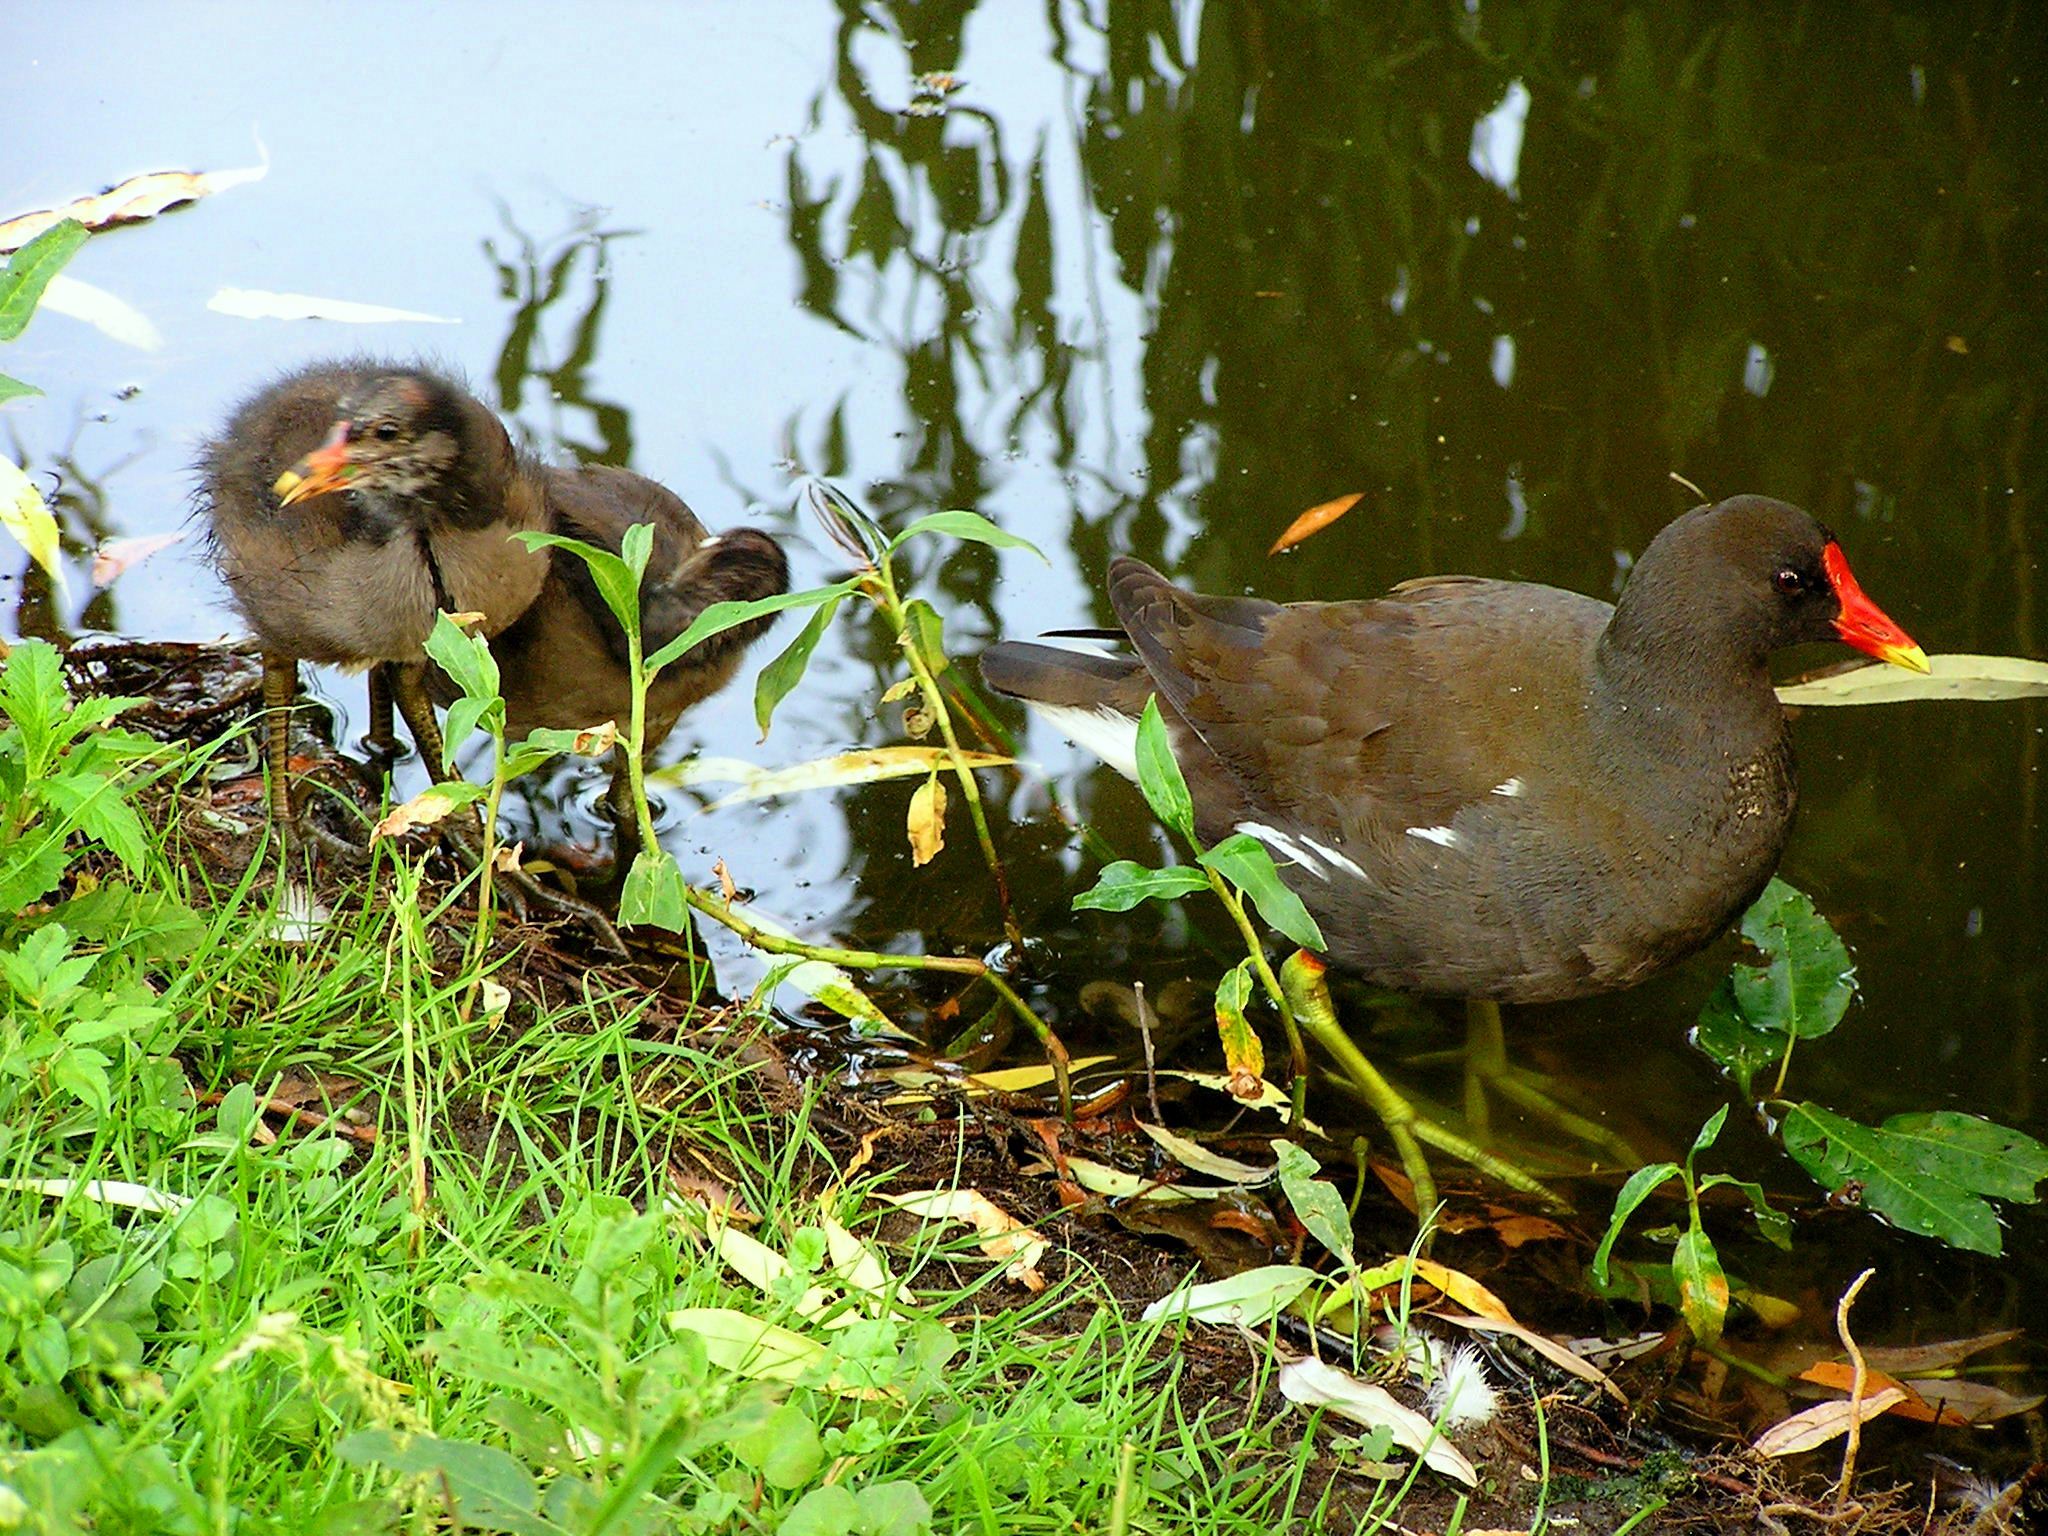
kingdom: Animalia
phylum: Chordata
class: Aves
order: Gruiformes
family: Rallidae
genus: Gallinula
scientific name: Gallinula chloropus
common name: Common moorhen
